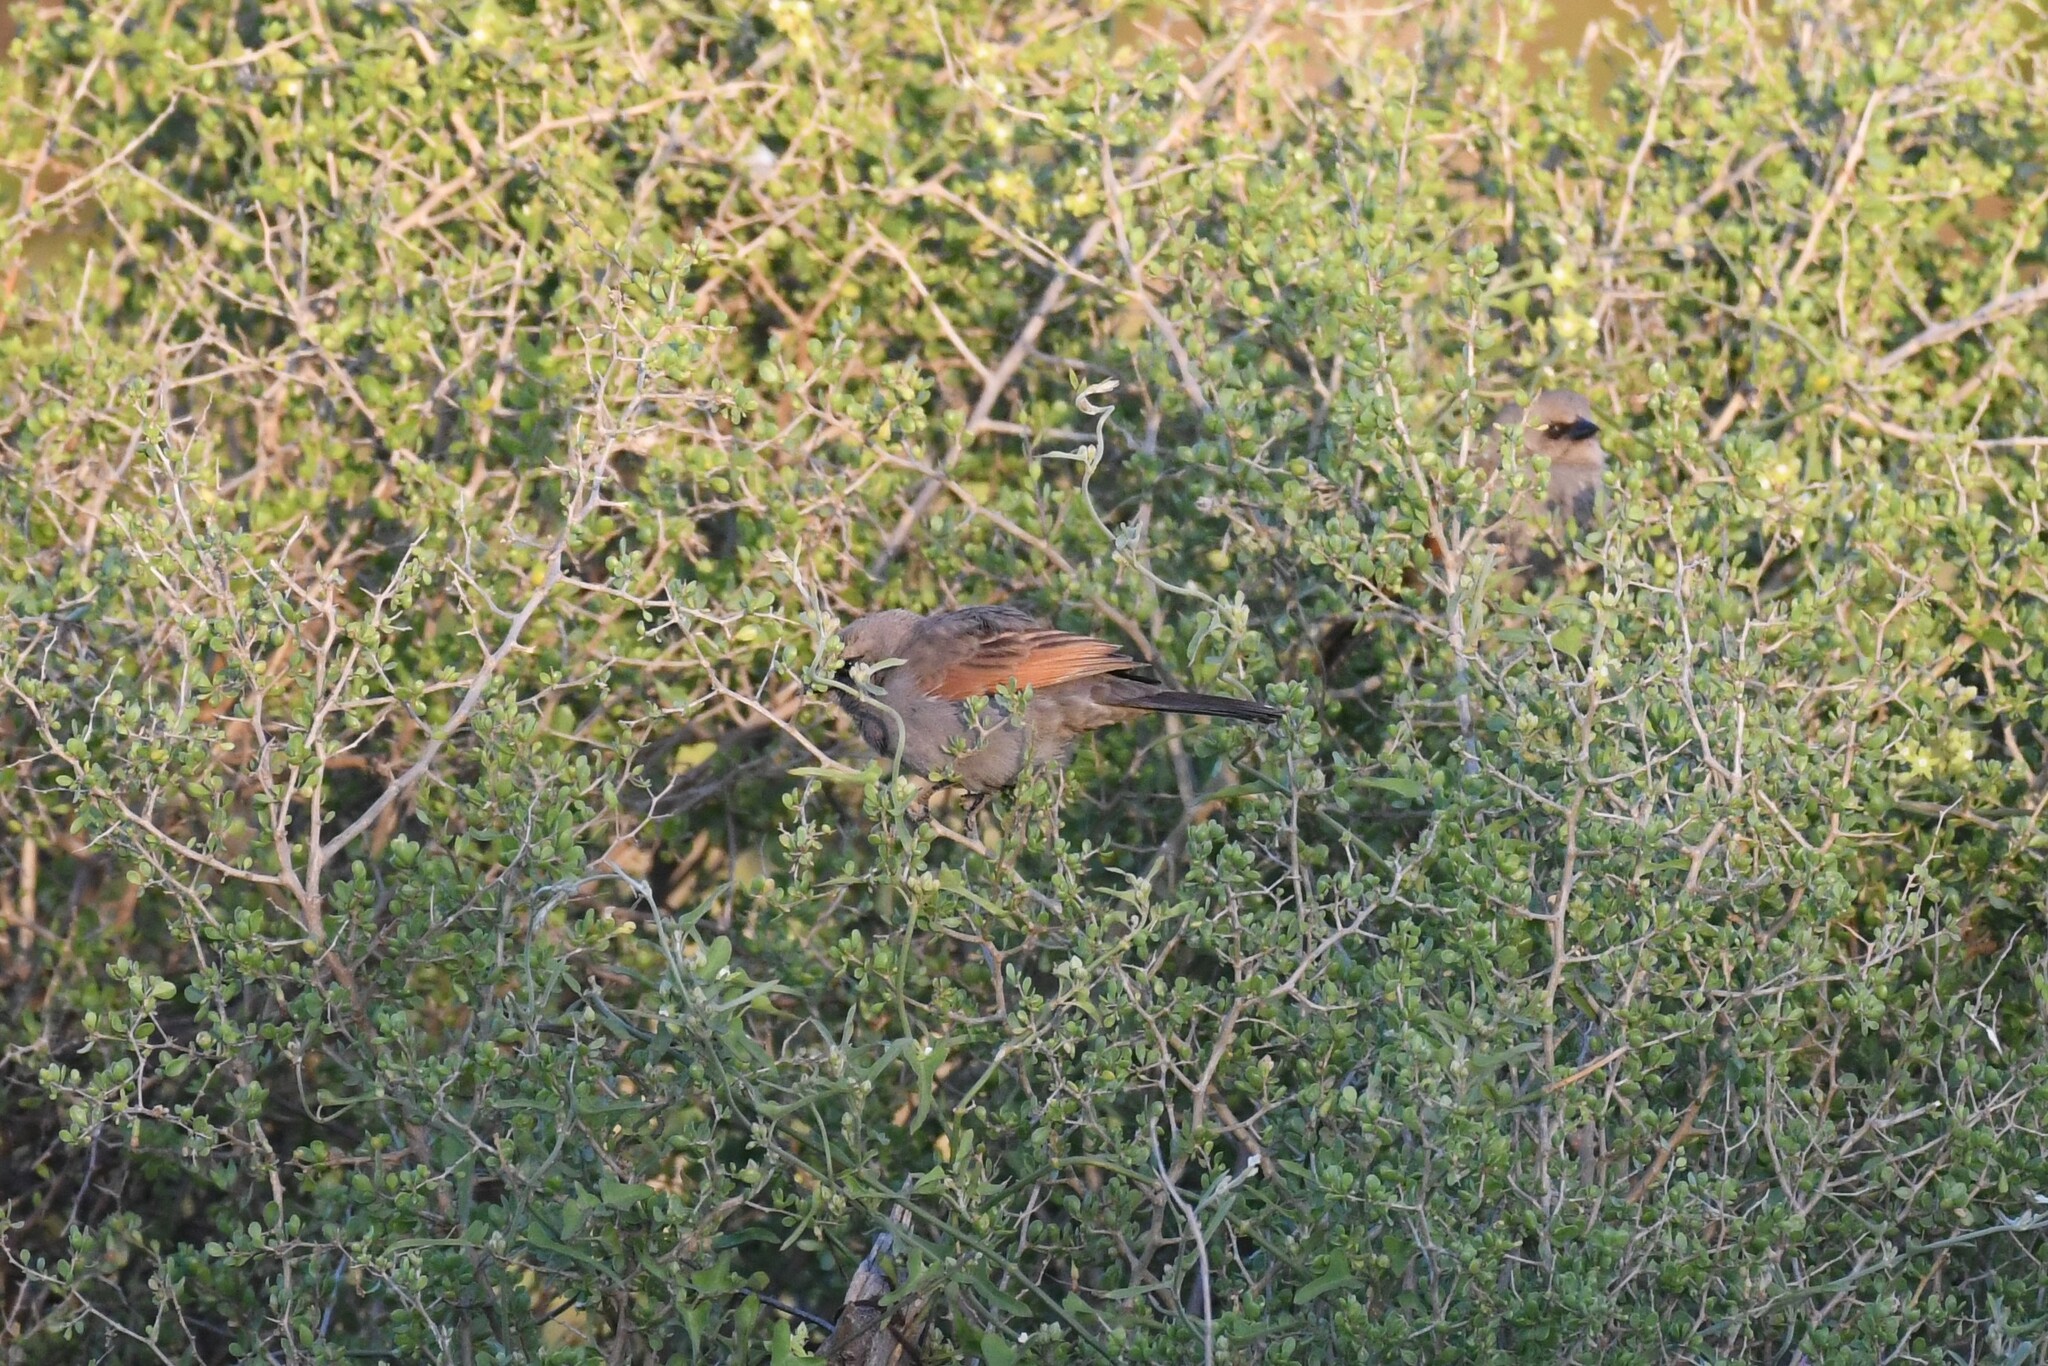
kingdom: Animalia
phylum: Chordata
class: Aves
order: Passeriformes
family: Icteridae
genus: Agelaioides
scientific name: Agelaioides badius
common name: Baywing
